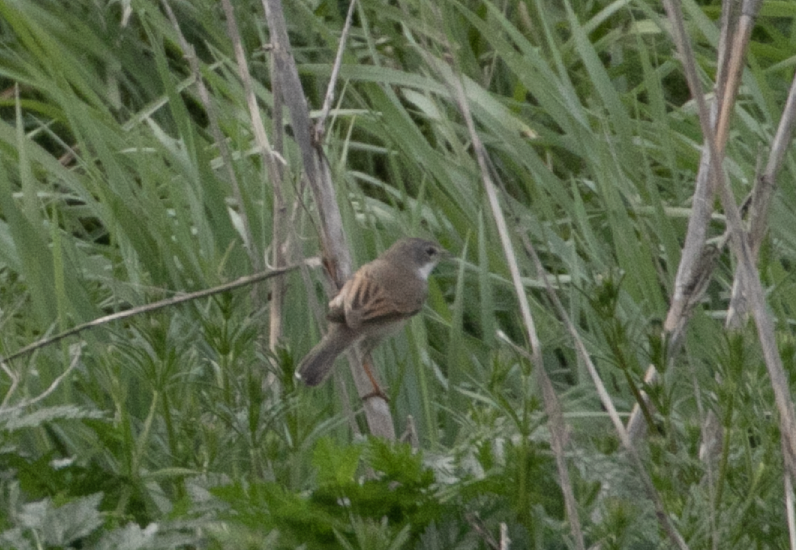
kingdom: Animalia
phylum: Chordata
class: Aves
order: Passeriformes
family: Sylviidae
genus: Sylvia
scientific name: Sylvia communis
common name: Common whitethroat
